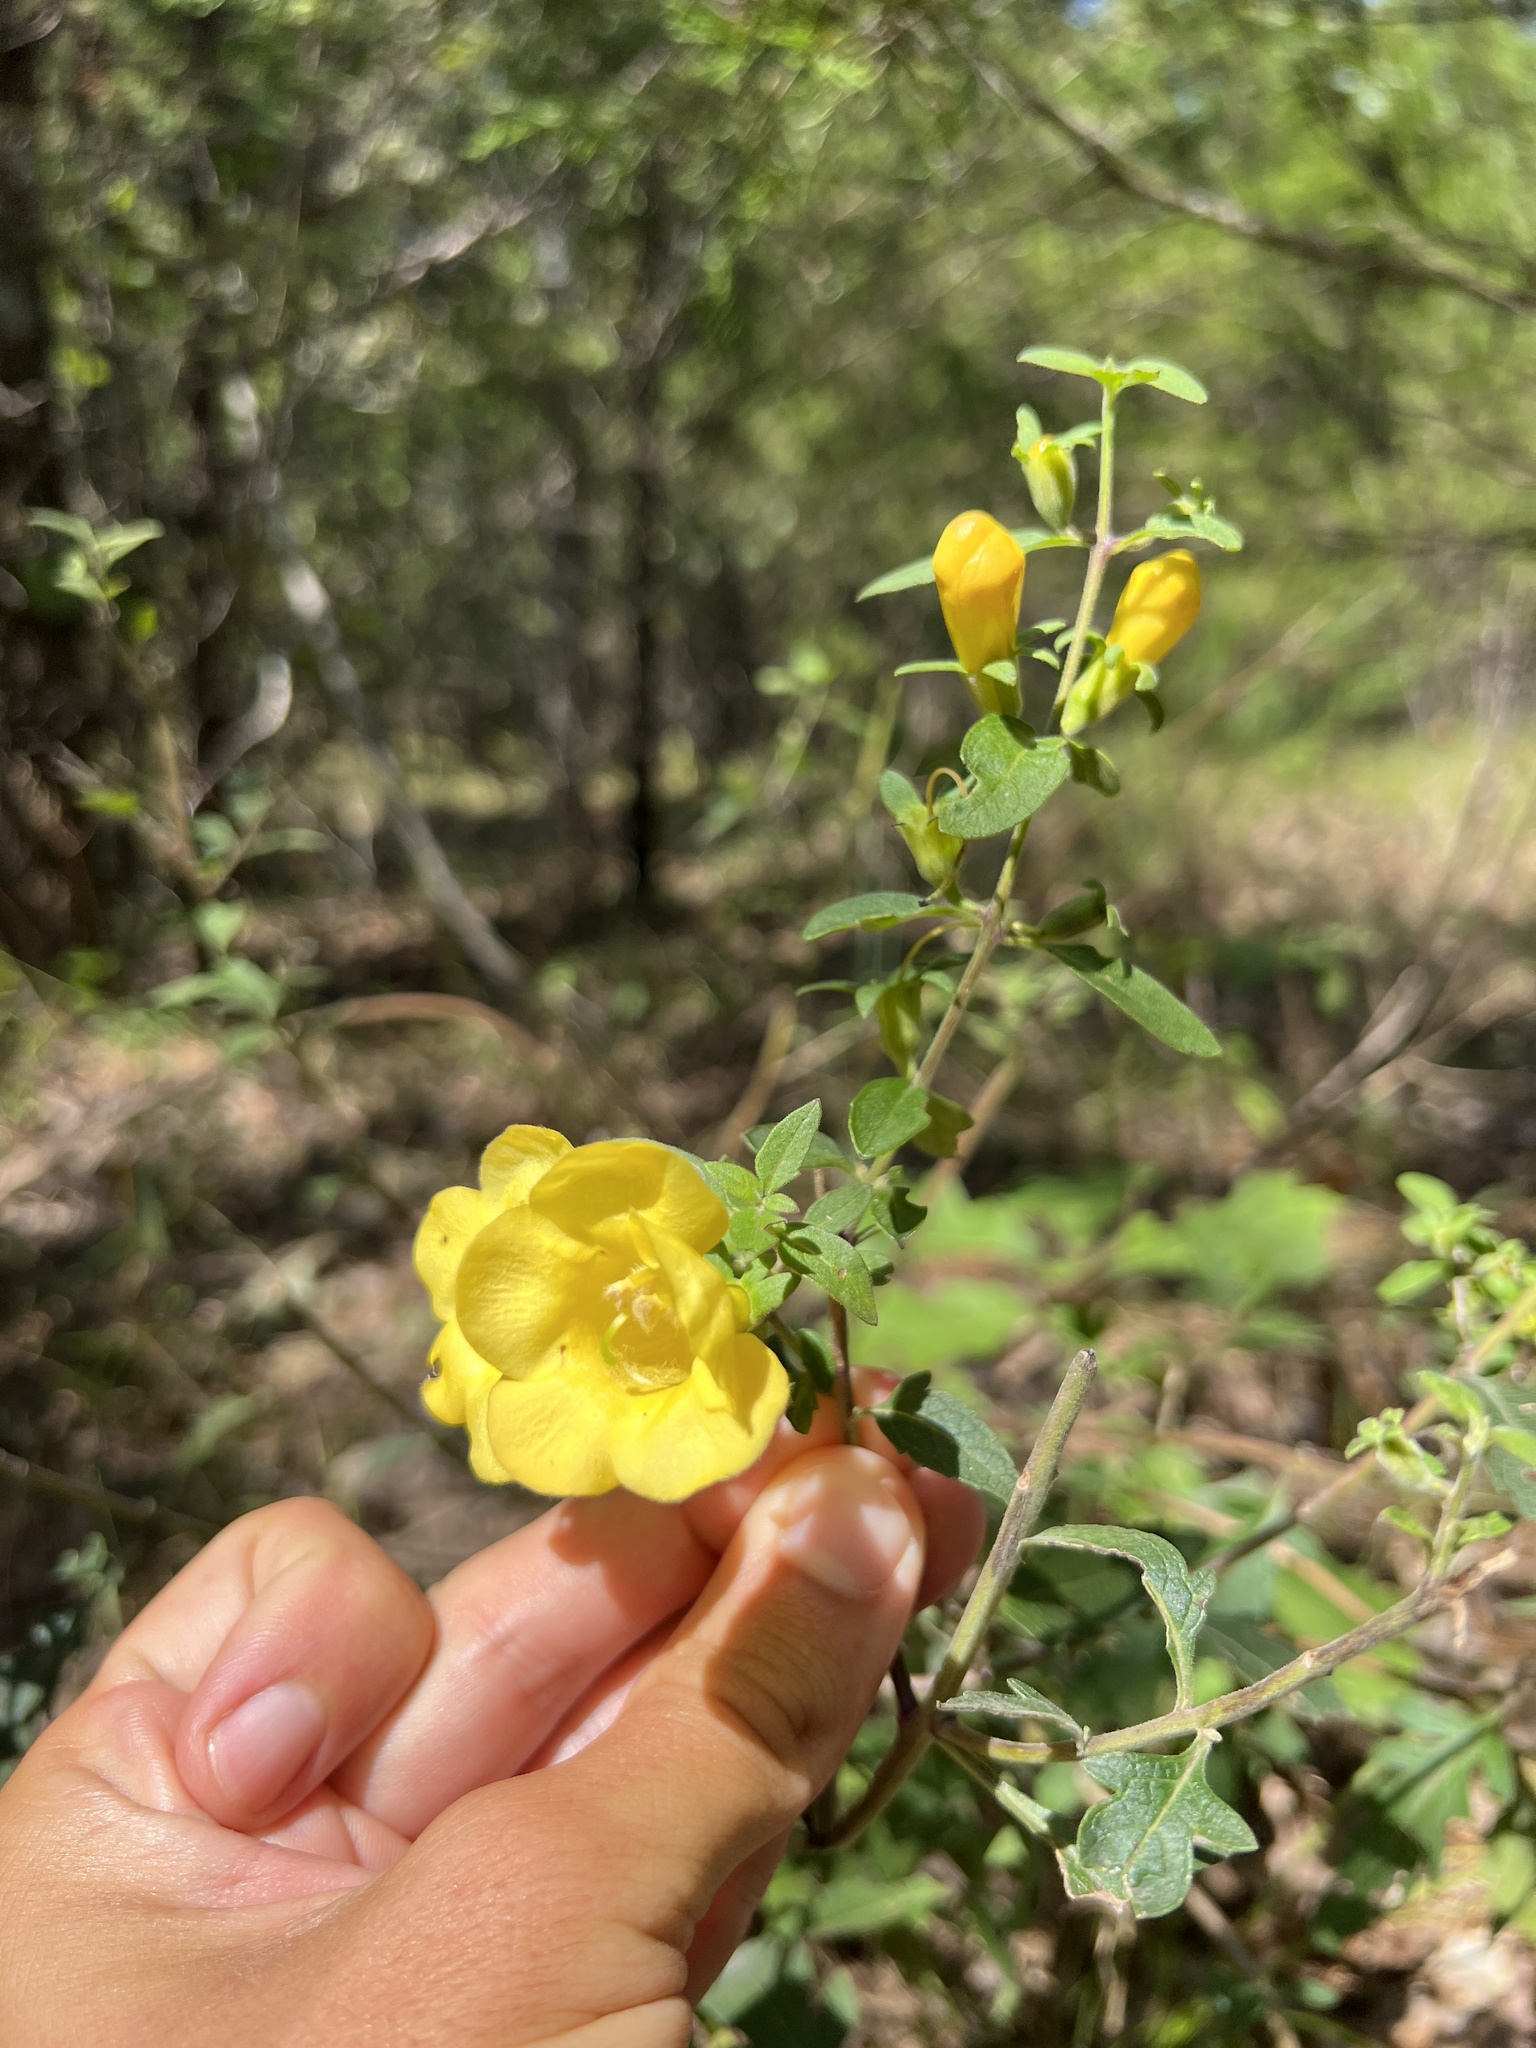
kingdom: Plantae
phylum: Tracheophyta
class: Magnoliopsida
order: Lamiales
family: Orobanchaceae
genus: Aureolaria
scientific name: Aureolaria grandiflora
